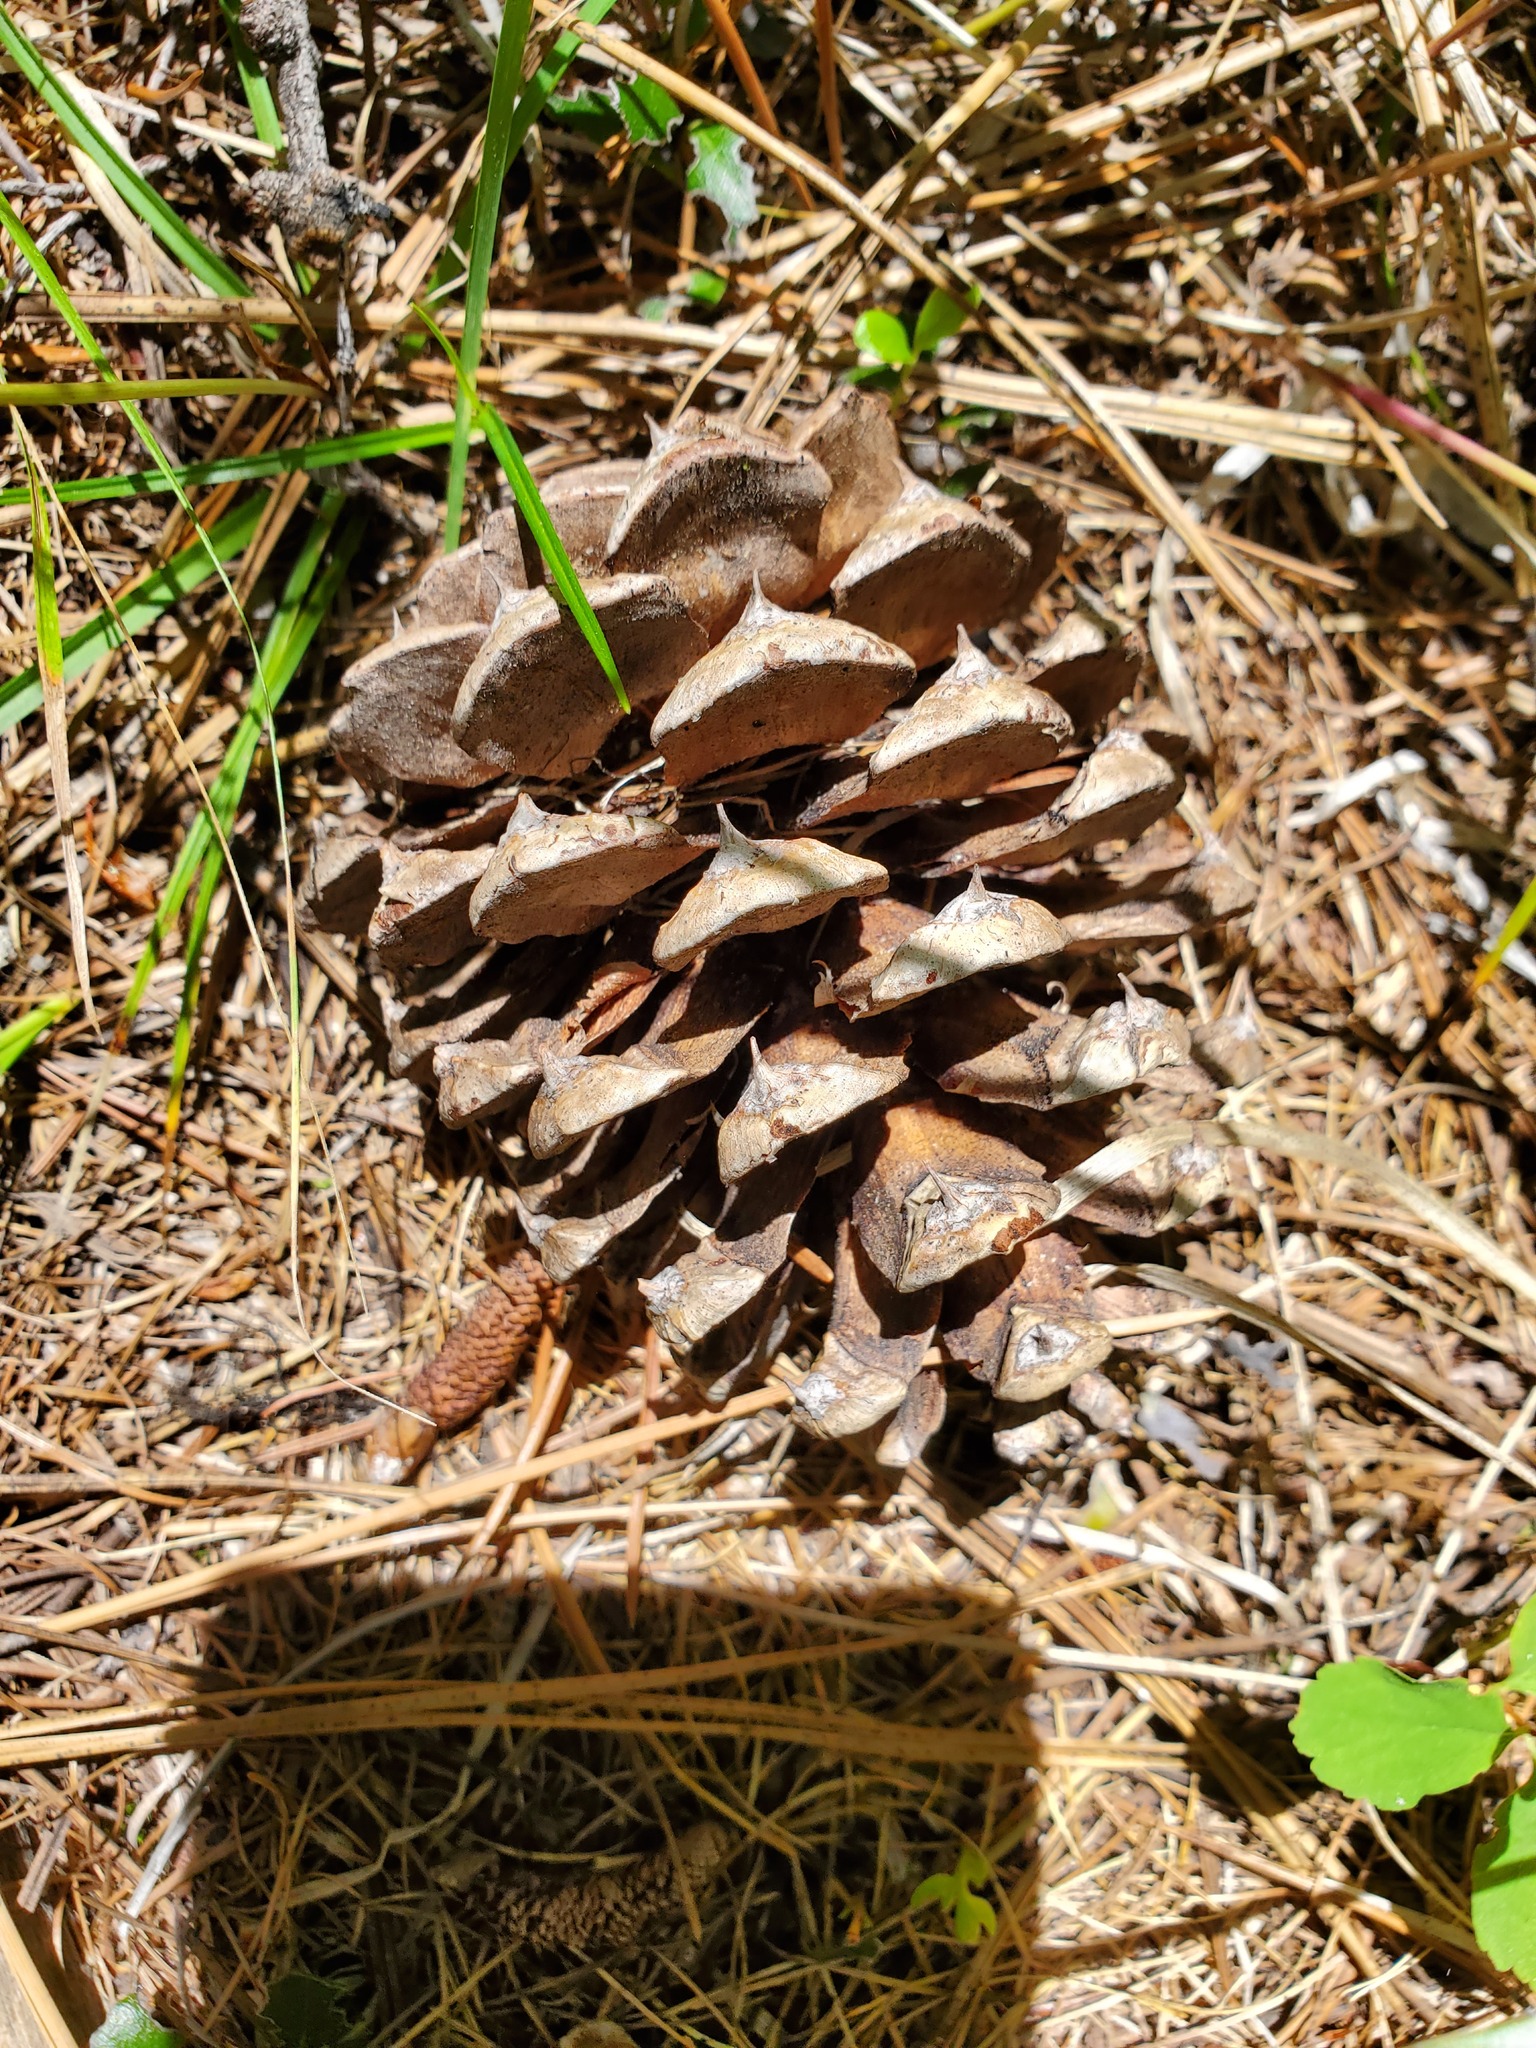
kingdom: Plantae
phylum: Tracheophyta
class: Pinopsida
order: Pinales
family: Pinaceae
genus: Pinus
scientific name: Pinus ponderosa
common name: Western yellow-pine
